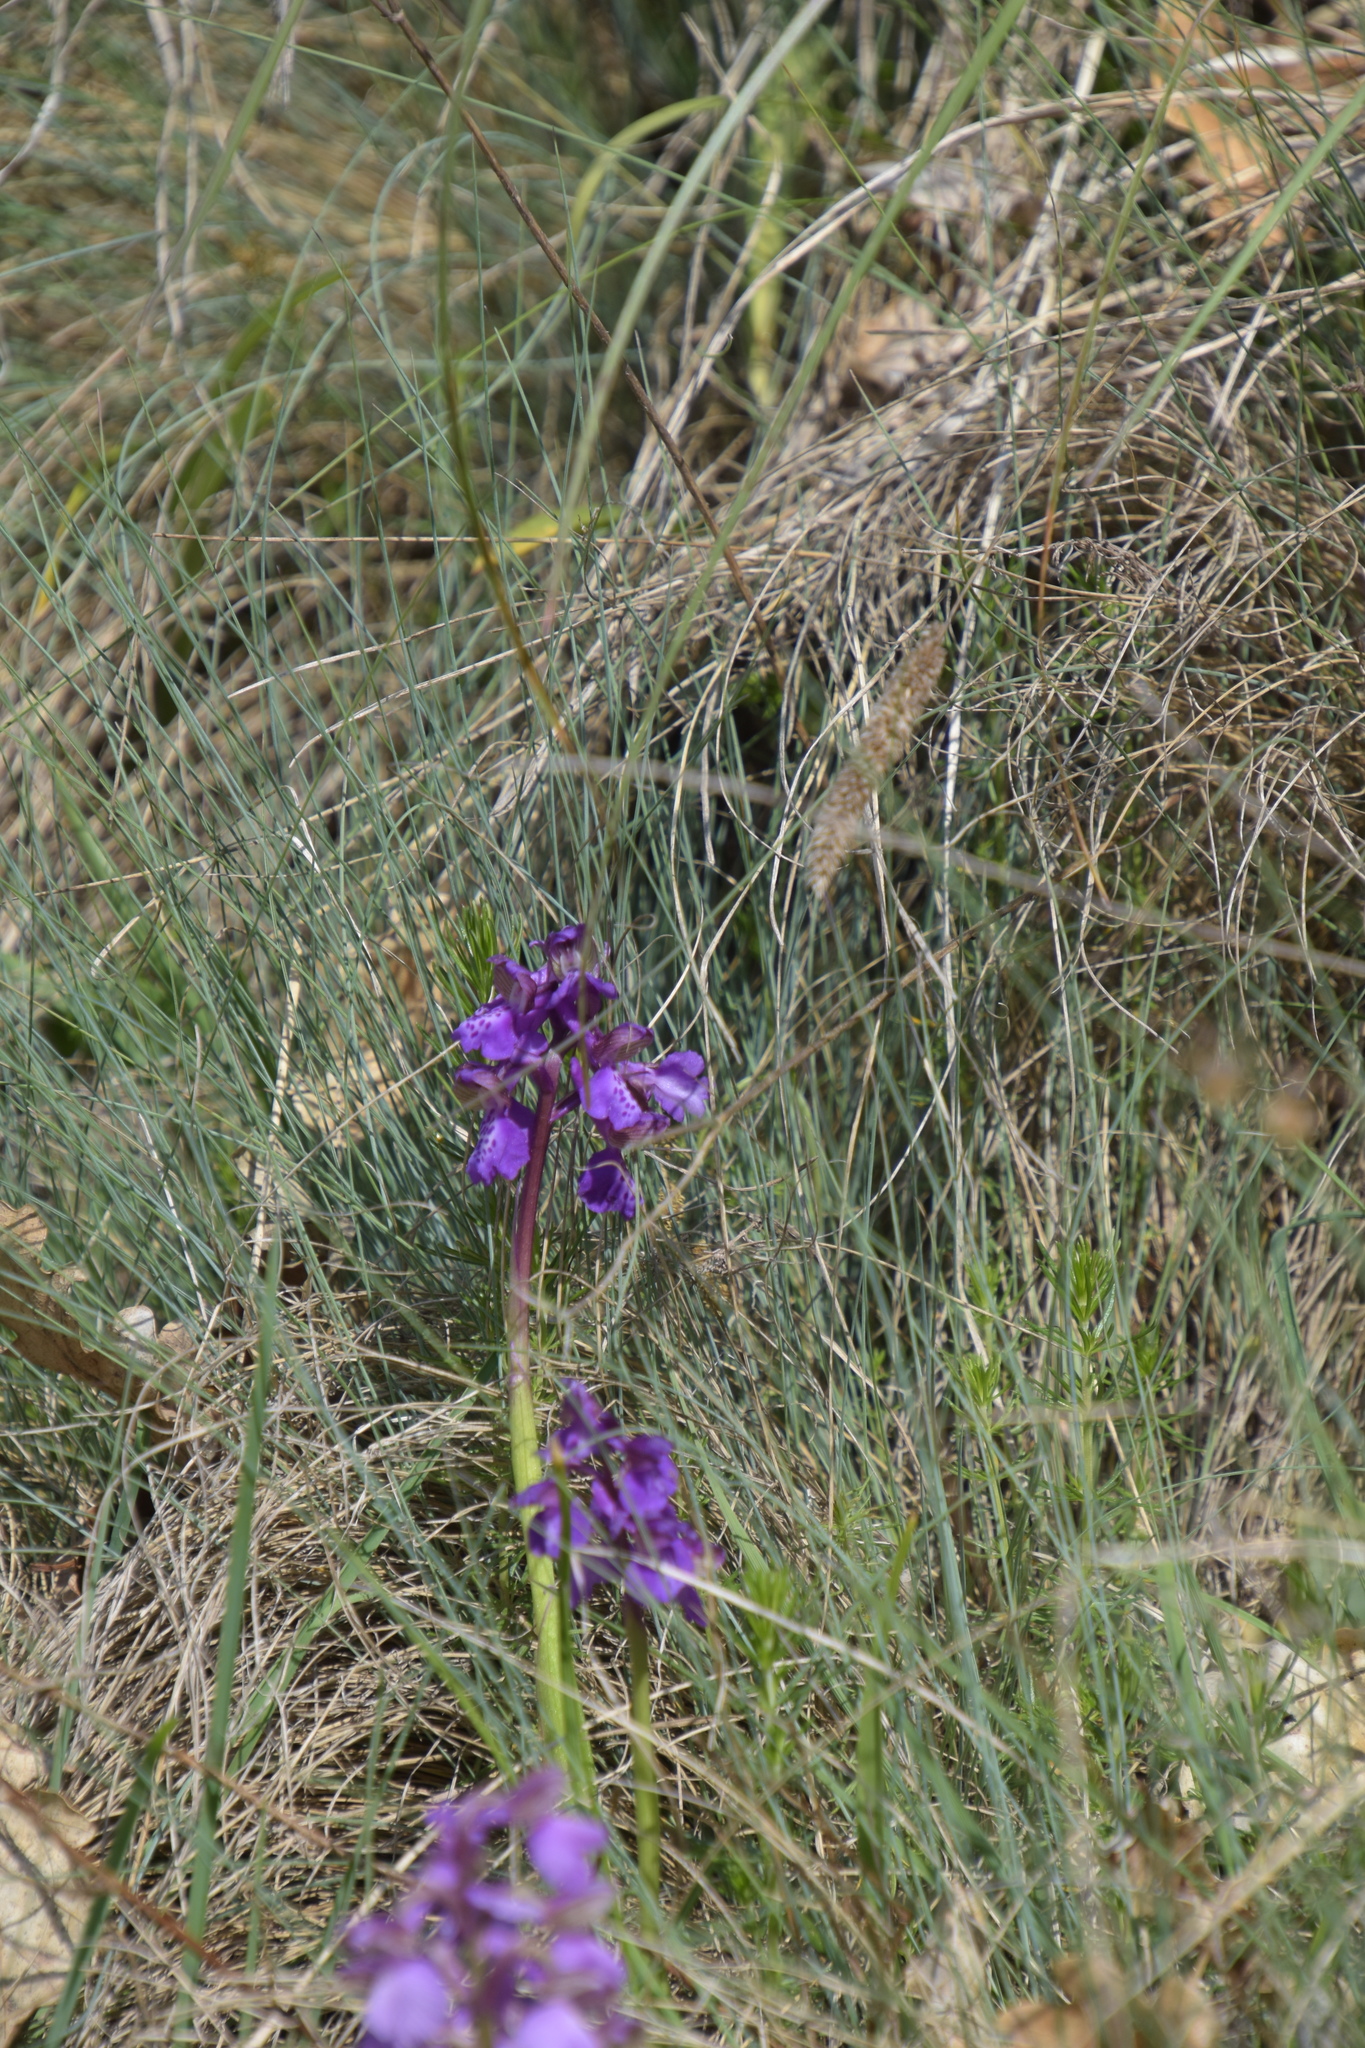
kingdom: Plantae
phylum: Tracheophyta
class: Liliopsida
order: Asparagales
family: Orchidaceae
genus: Anacamptis
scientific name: Anacamptis morio
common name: Green-winged orchid
